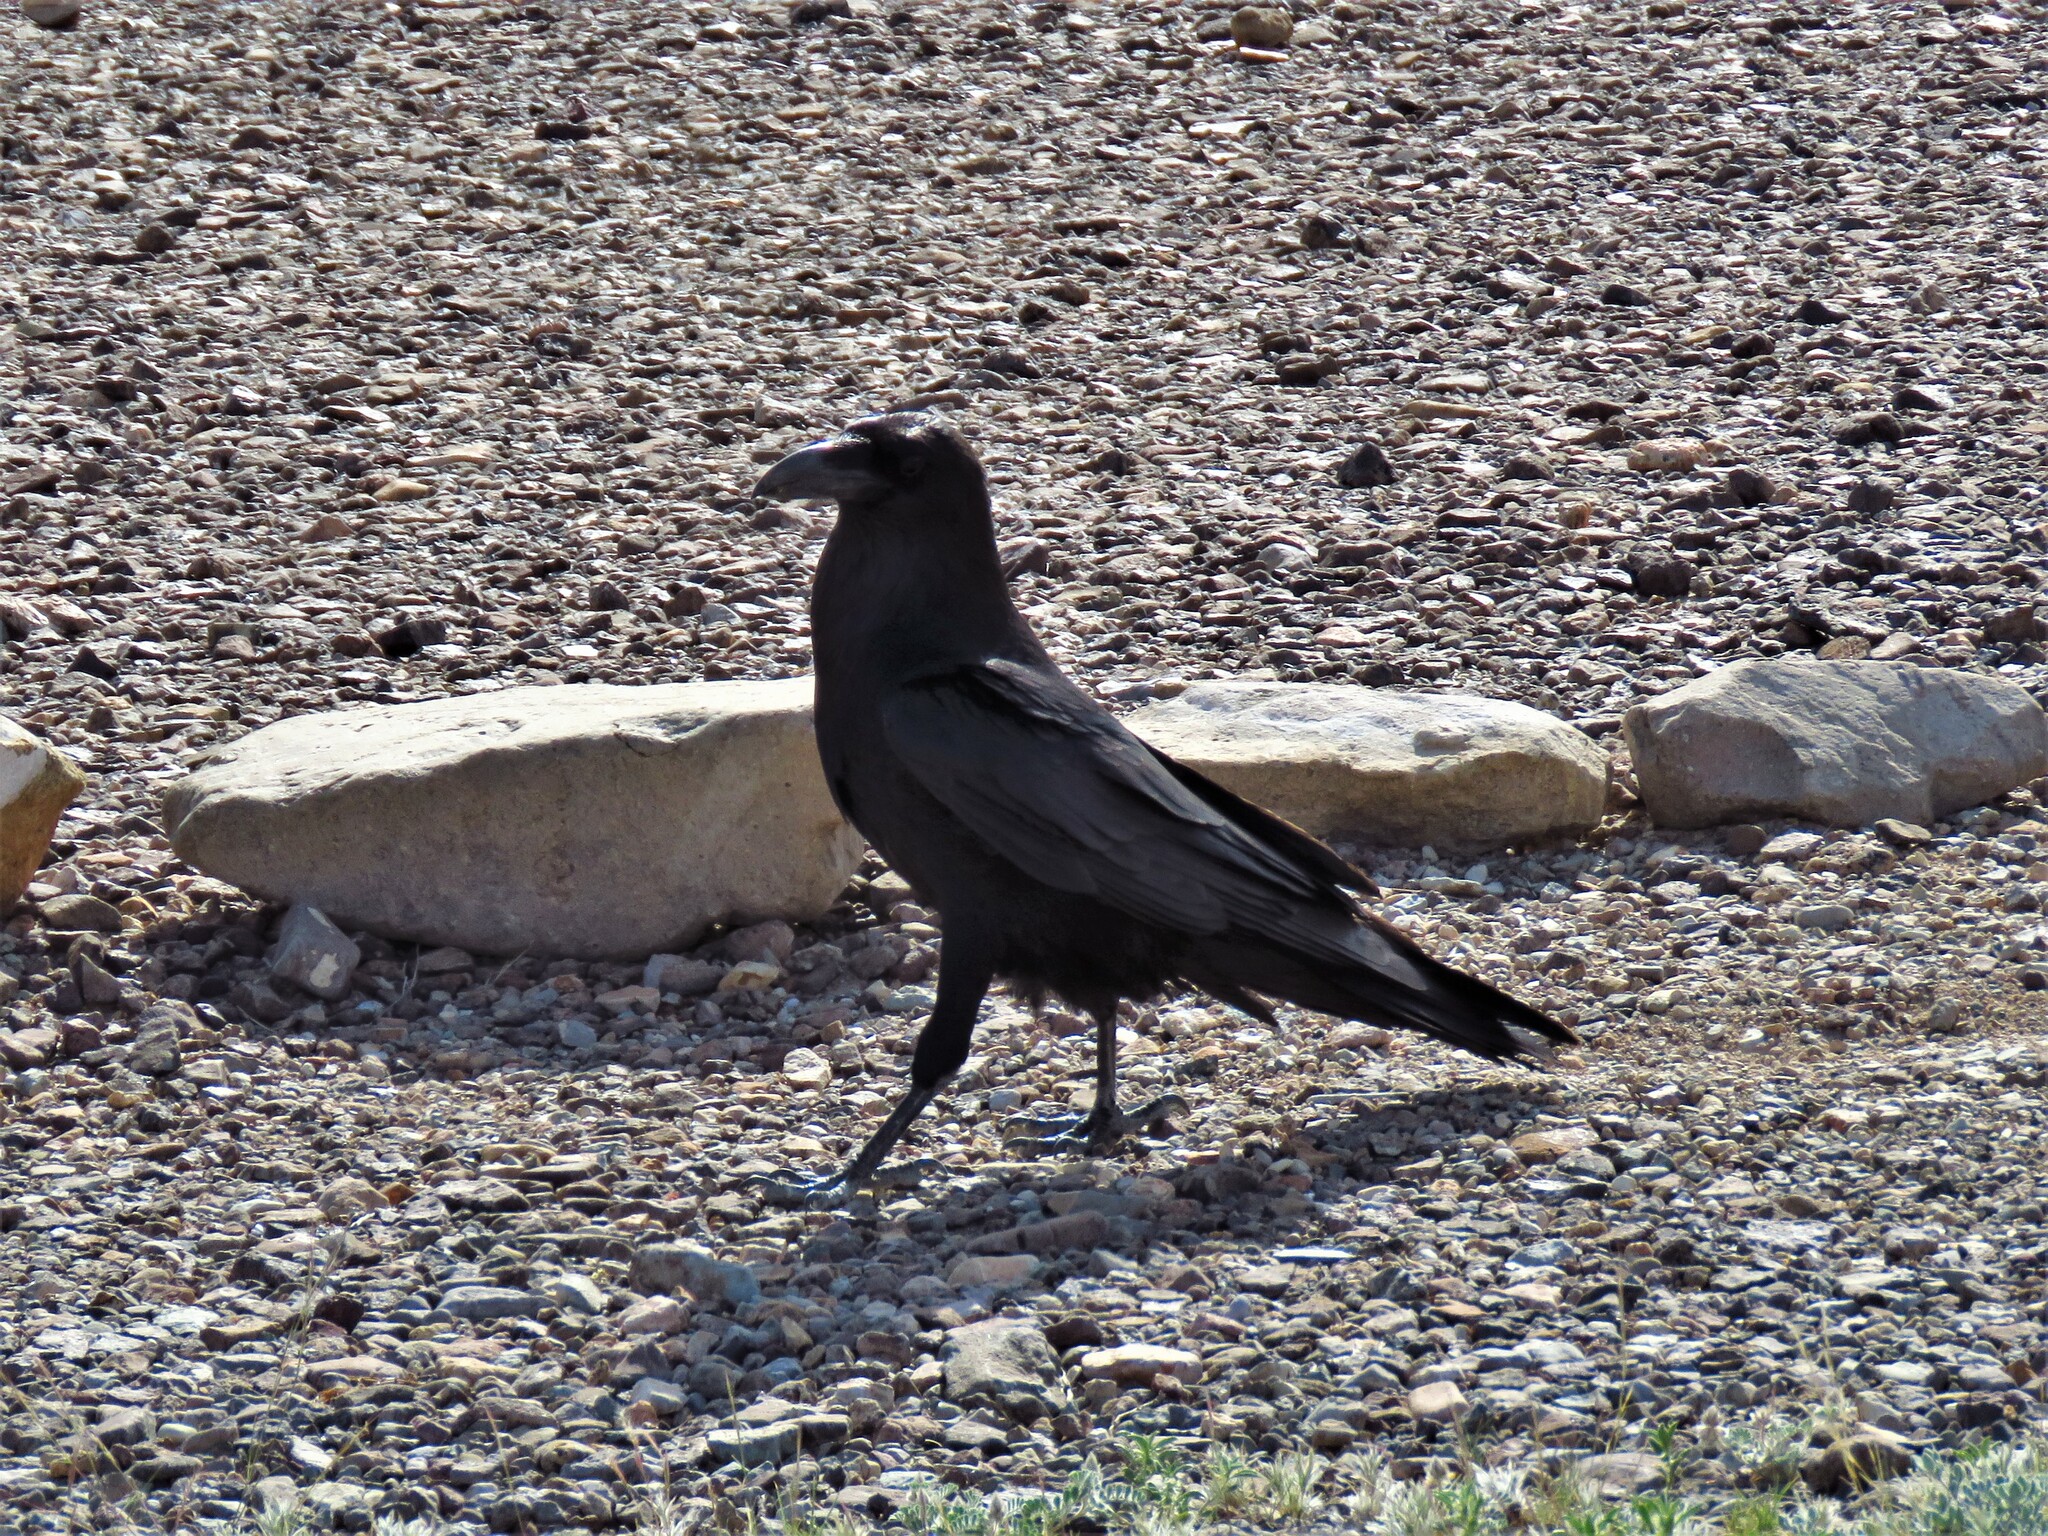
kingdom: Animalia
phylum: Chordata
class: Aves
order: Passeriformes
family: Corvidae
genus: Corvus
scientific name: Corvus corax
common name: Common raven
